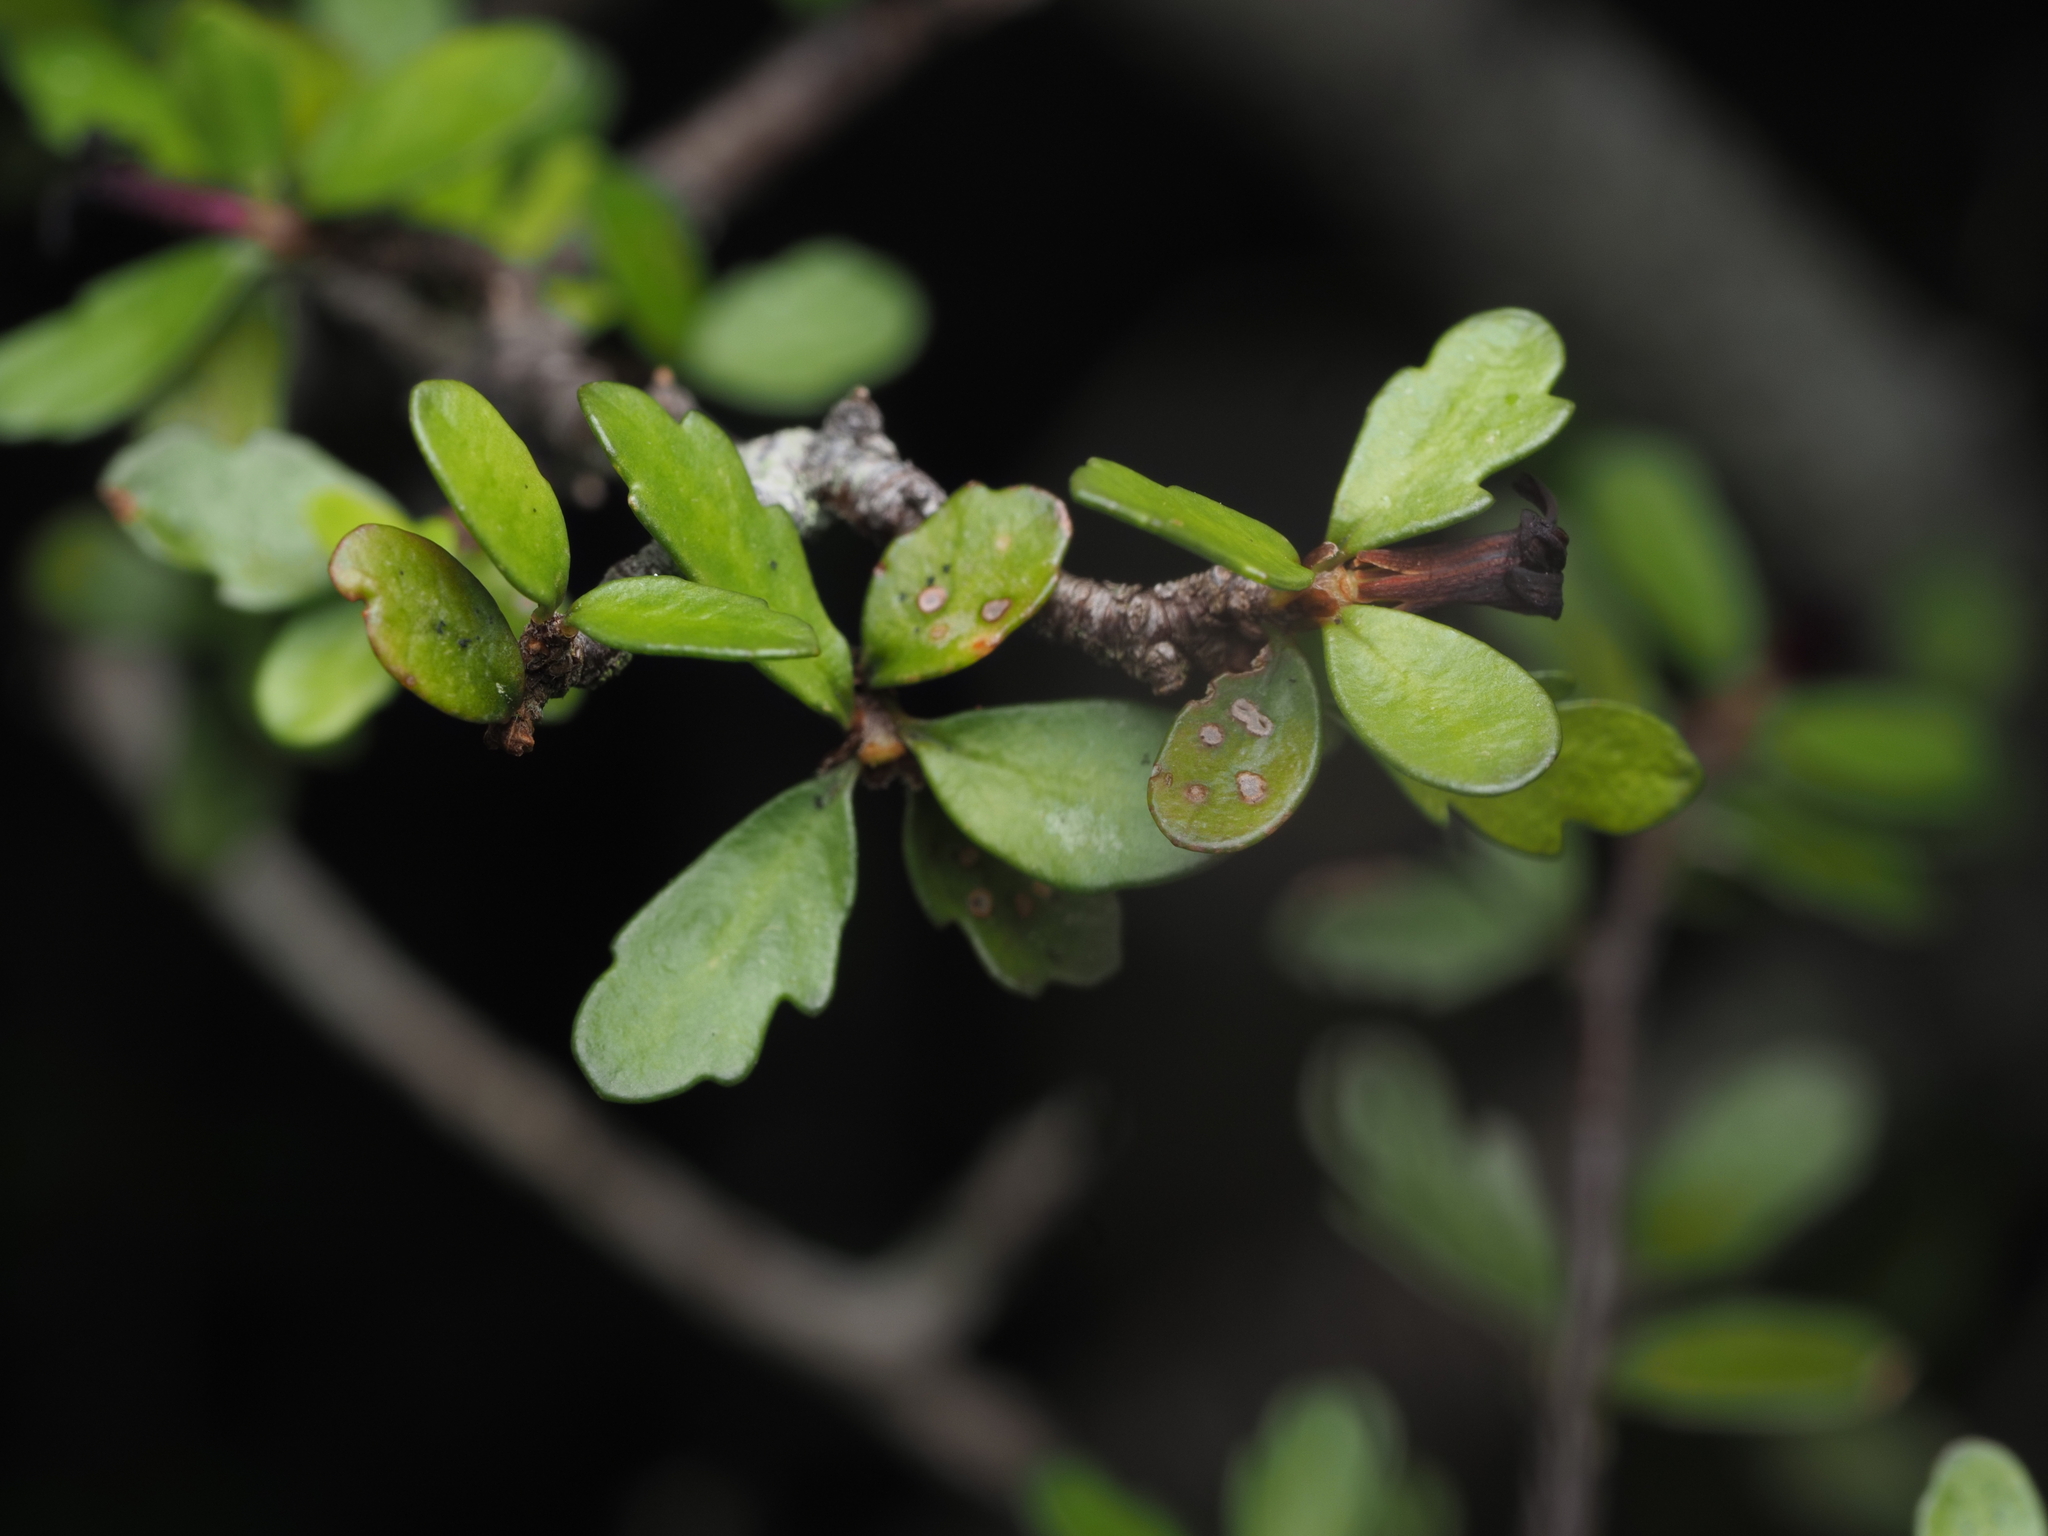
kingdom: Plantae
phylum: Tracheophyta
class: Magnoliopsida
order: Apiales
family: Pittosporaceae
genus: Pittosporum
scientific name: Pittosporum divaricatum
